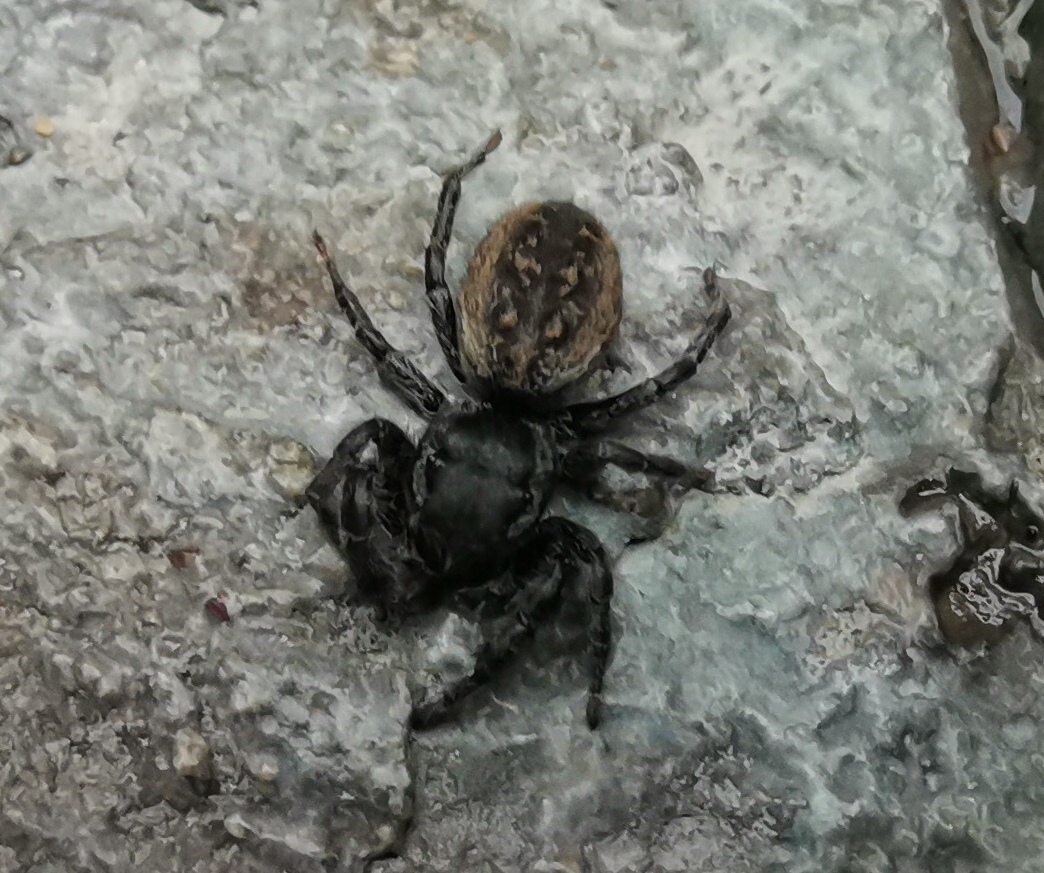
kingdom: Animalia
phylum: Arthropoda
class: Arachnida
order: Araneae
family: Salticidae
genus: Phidippus
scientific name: Phidippus cerberus
